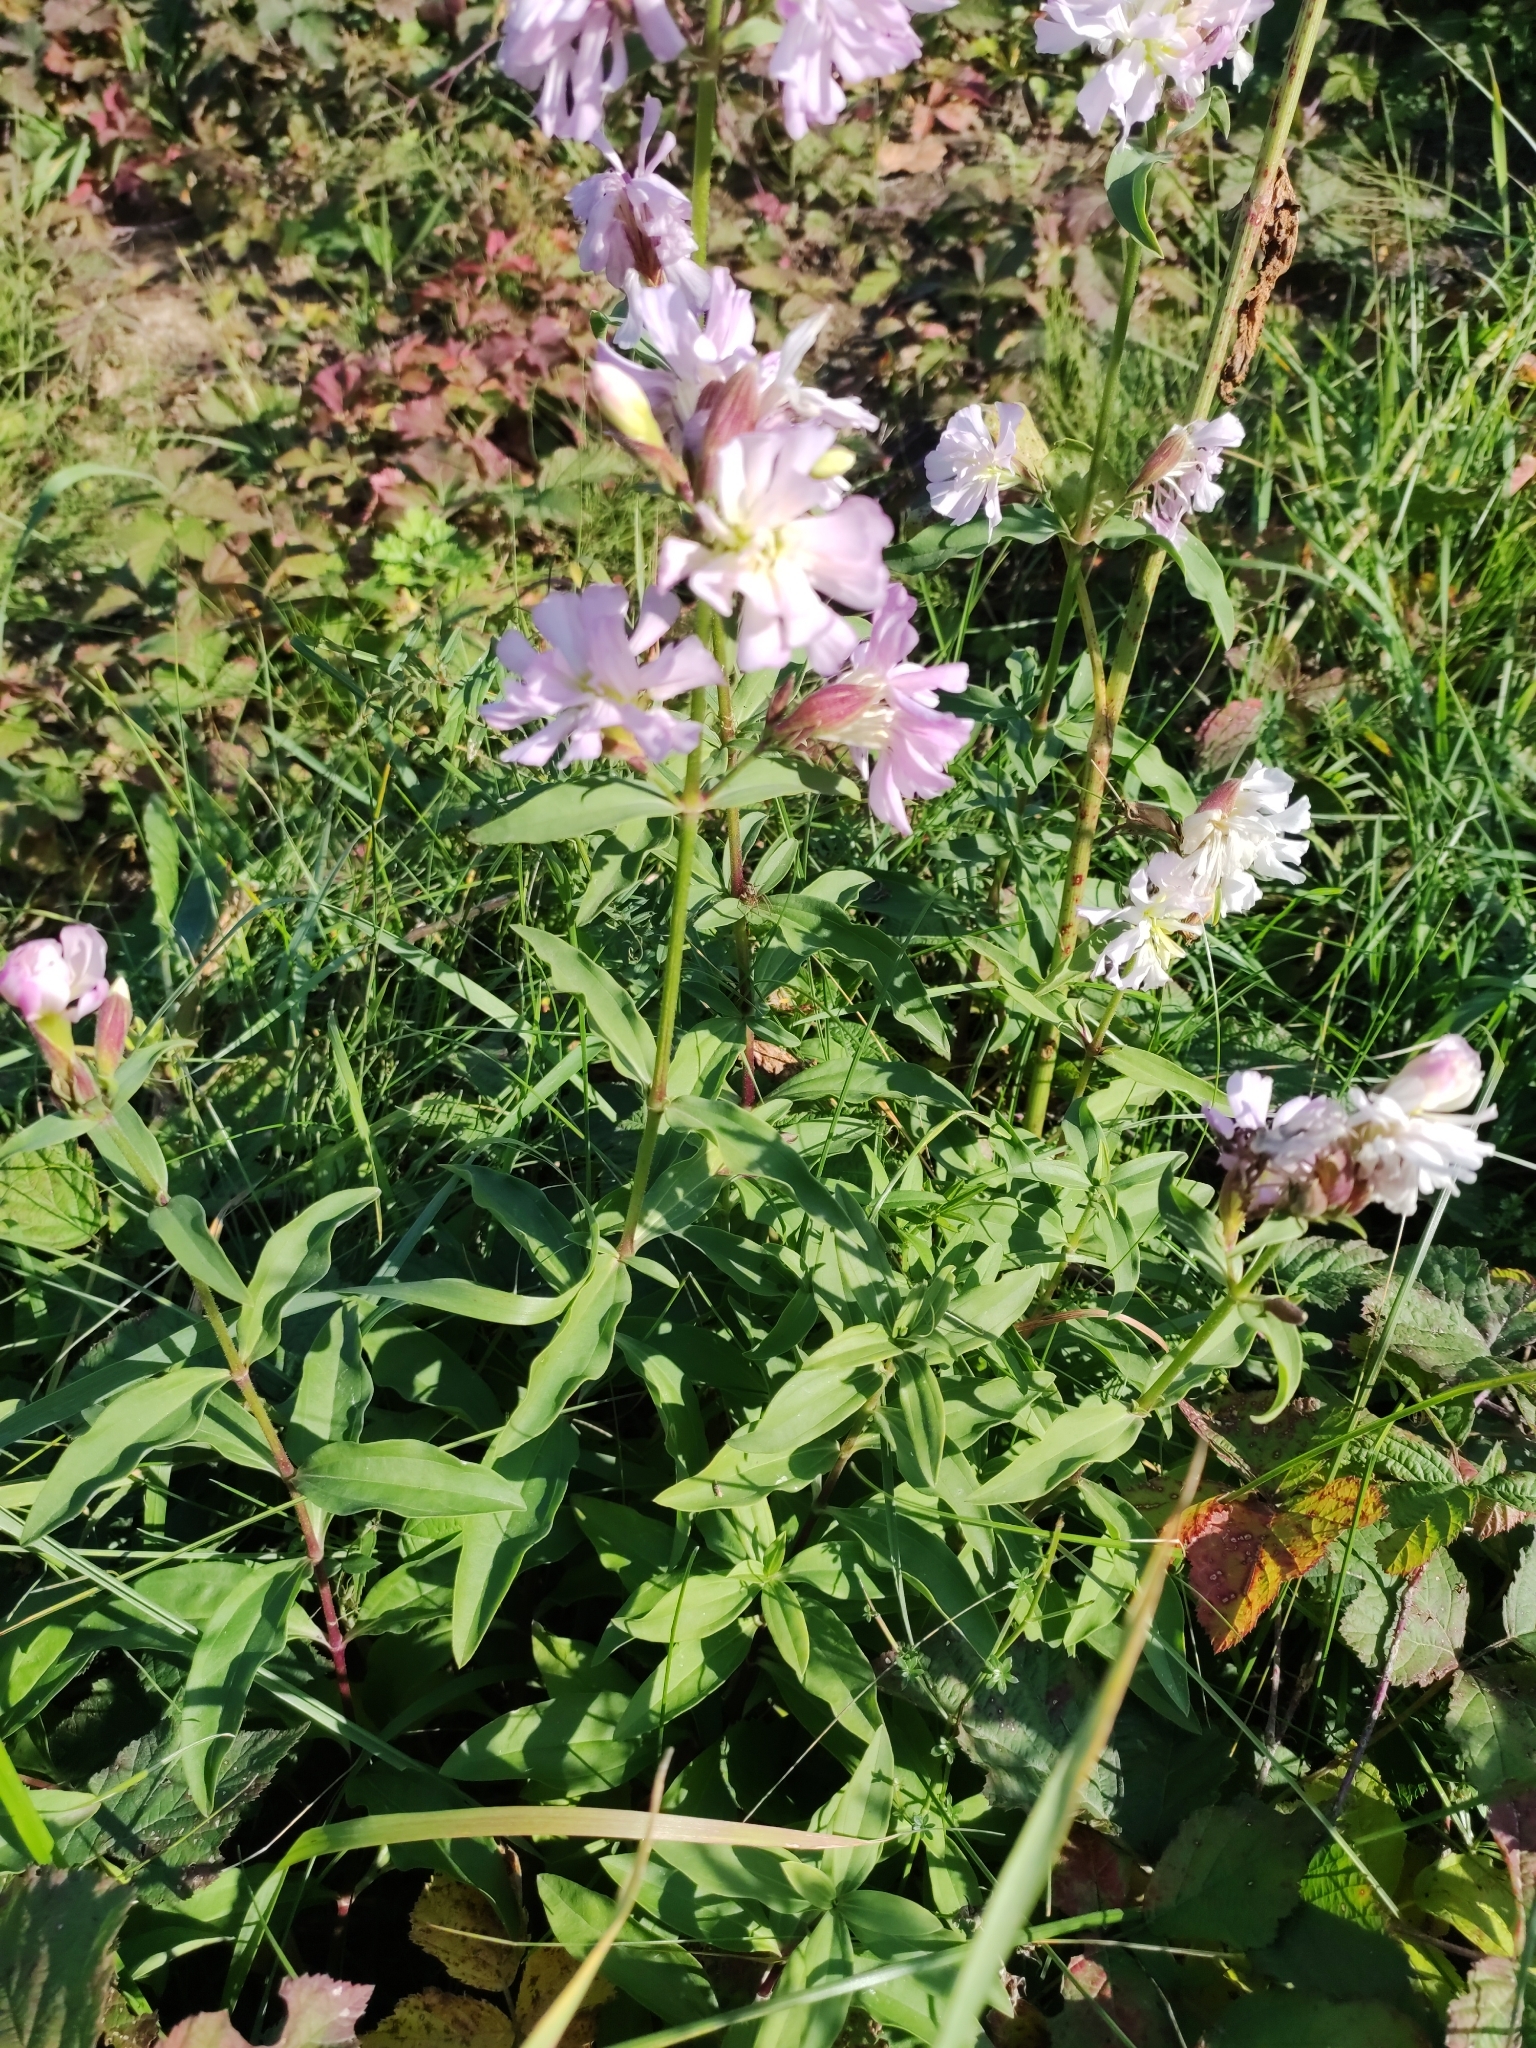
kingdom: Plantae
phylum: Tracheophyta
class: Magnoliopsida
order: Caryophyllales
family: Caryophyllaceae
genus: Saponaria
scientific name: Saponaria officinalis
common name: Soapwort
